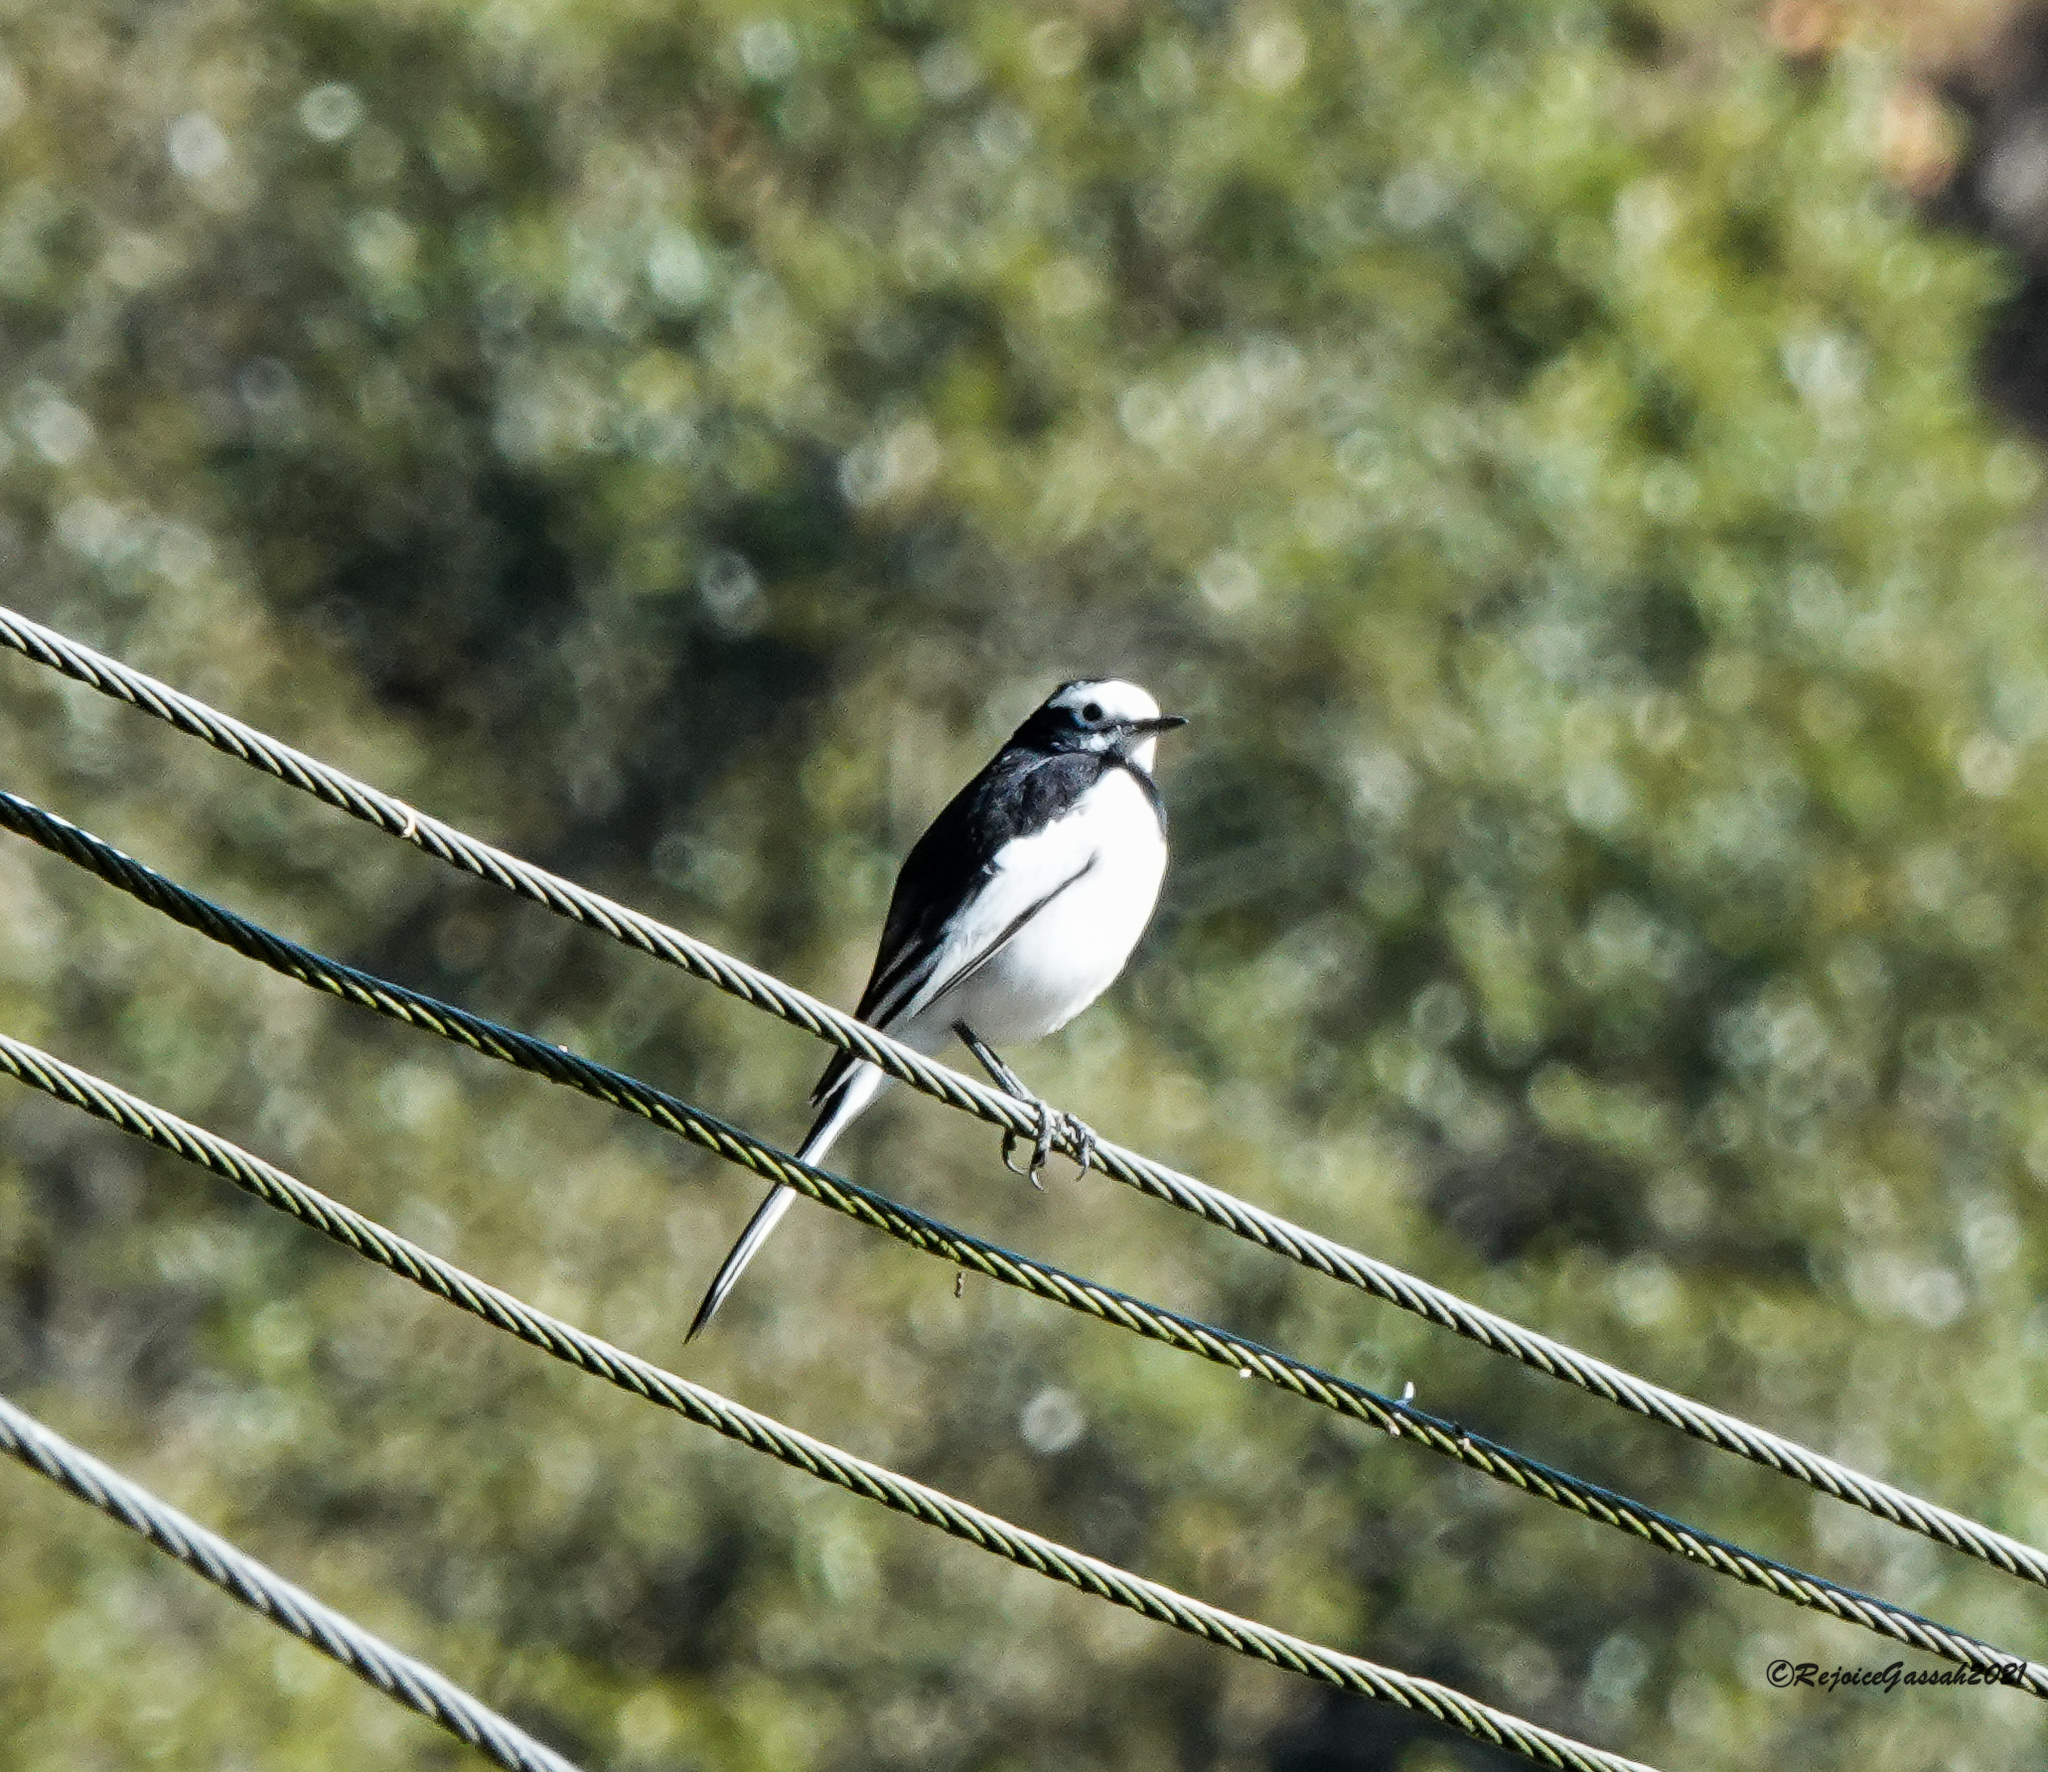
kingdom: Animalia
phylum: Chordata
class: Aves
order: Passeriformes
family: Motacillidae
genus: Motacilla
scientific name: Motacilla alba
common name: White wagtail
